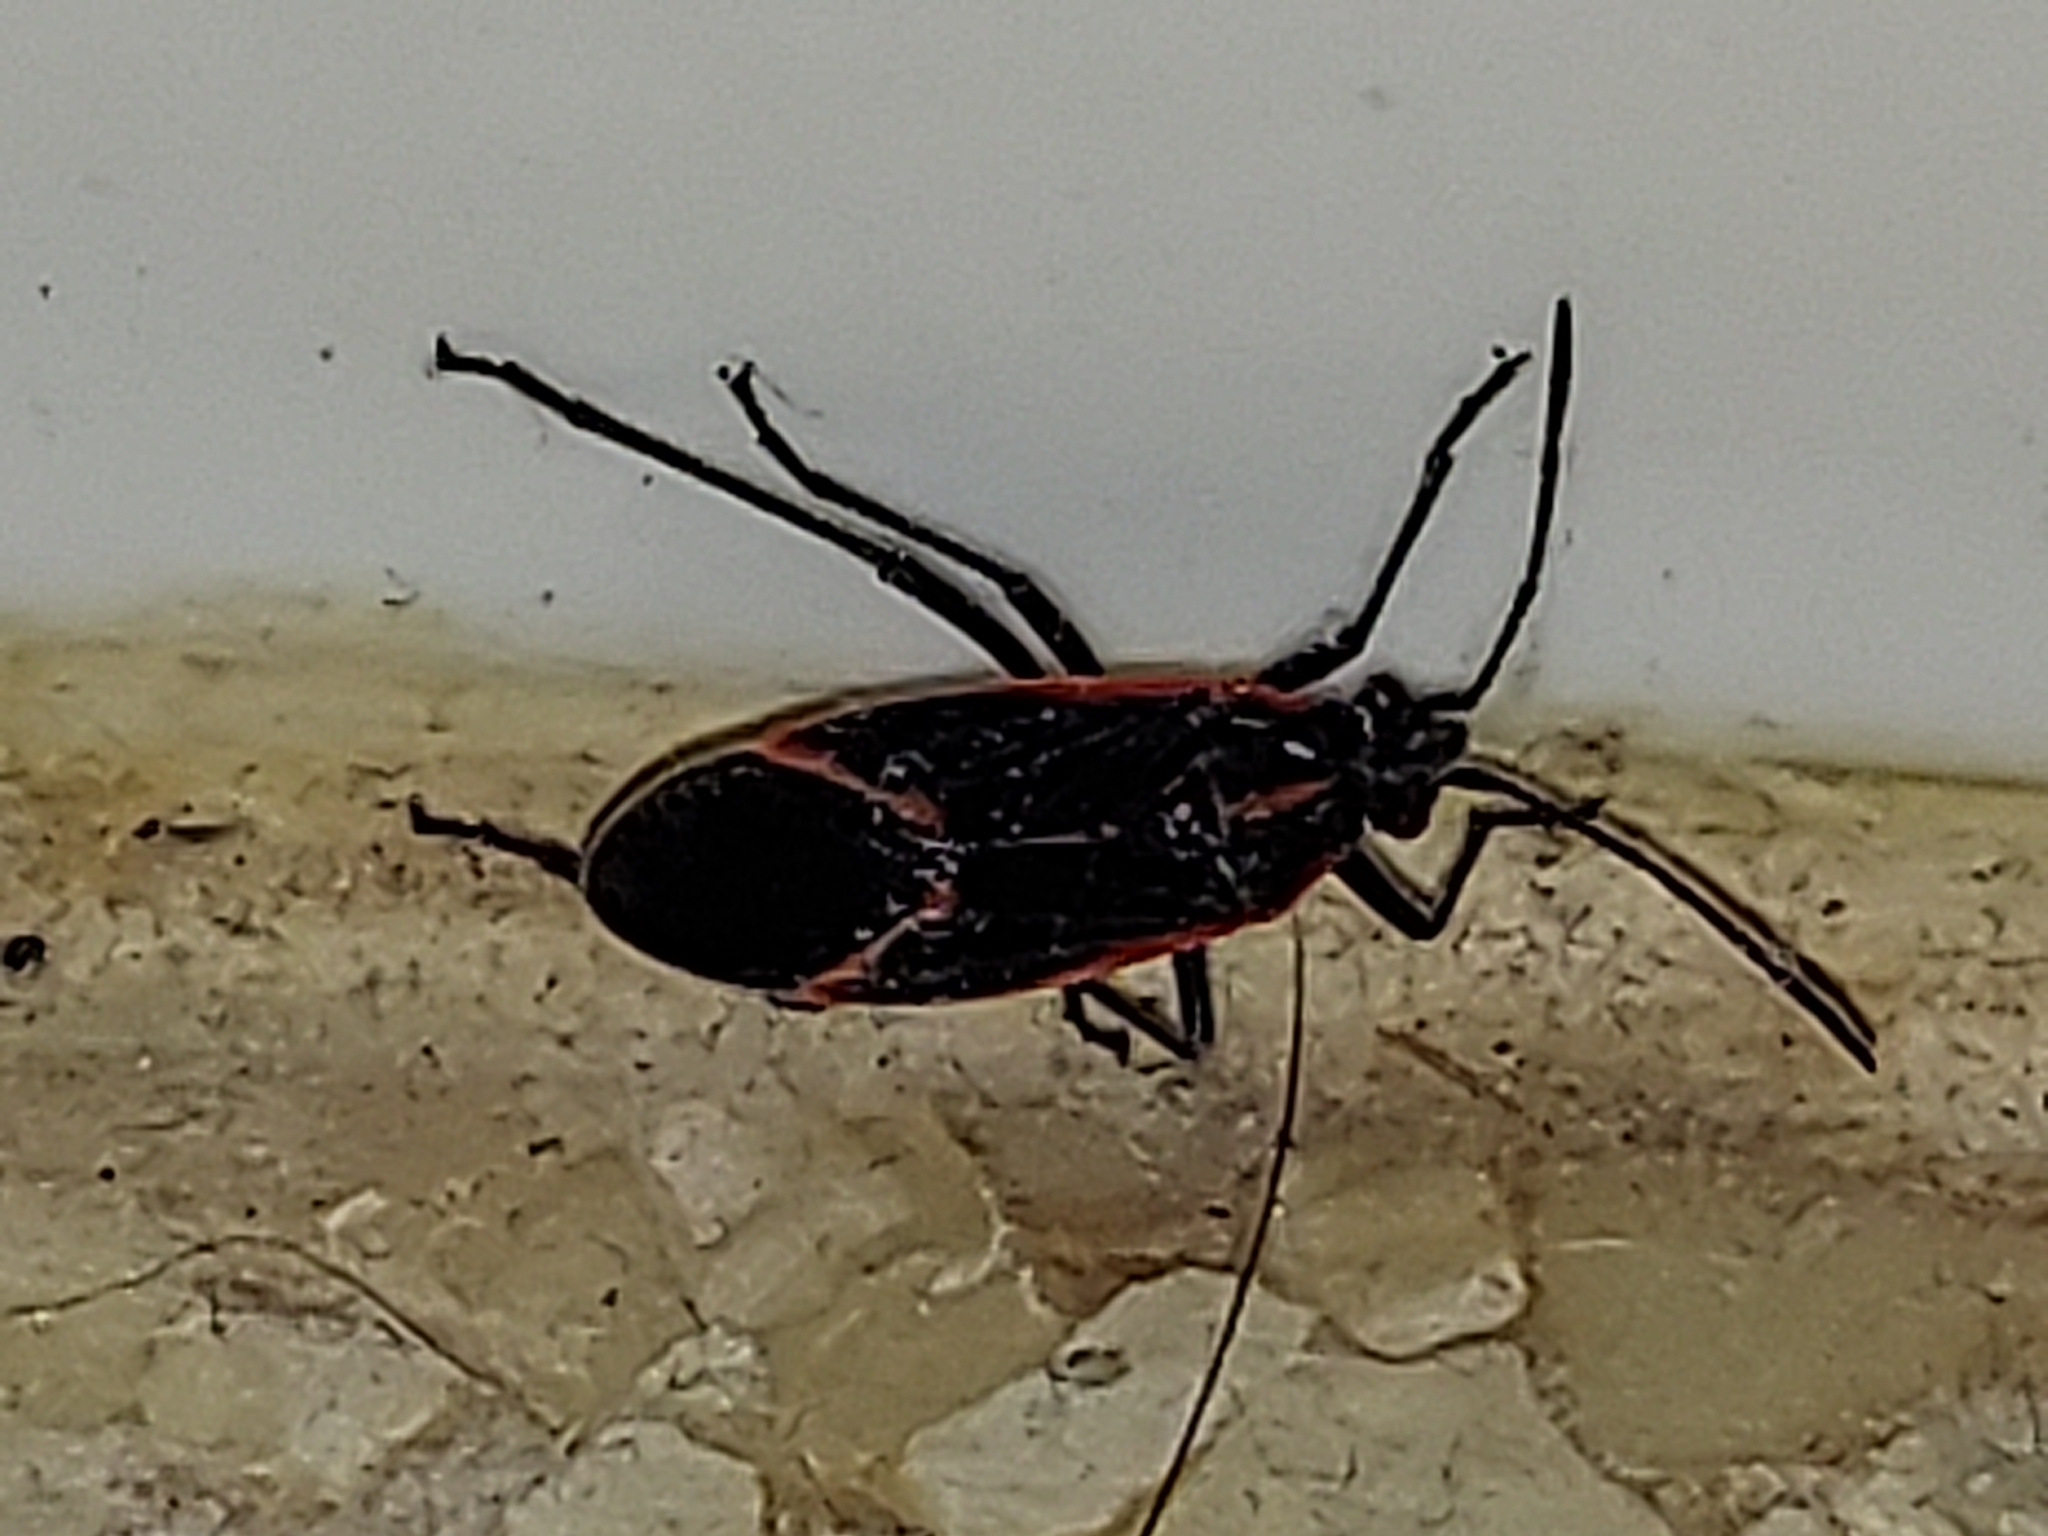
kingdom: Animalia
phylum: Arthropoda
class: Insecta
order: Hemiptera
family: Rhopalidae
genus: Boisea
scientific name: Boisea trivittata
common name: Boxelder bug
